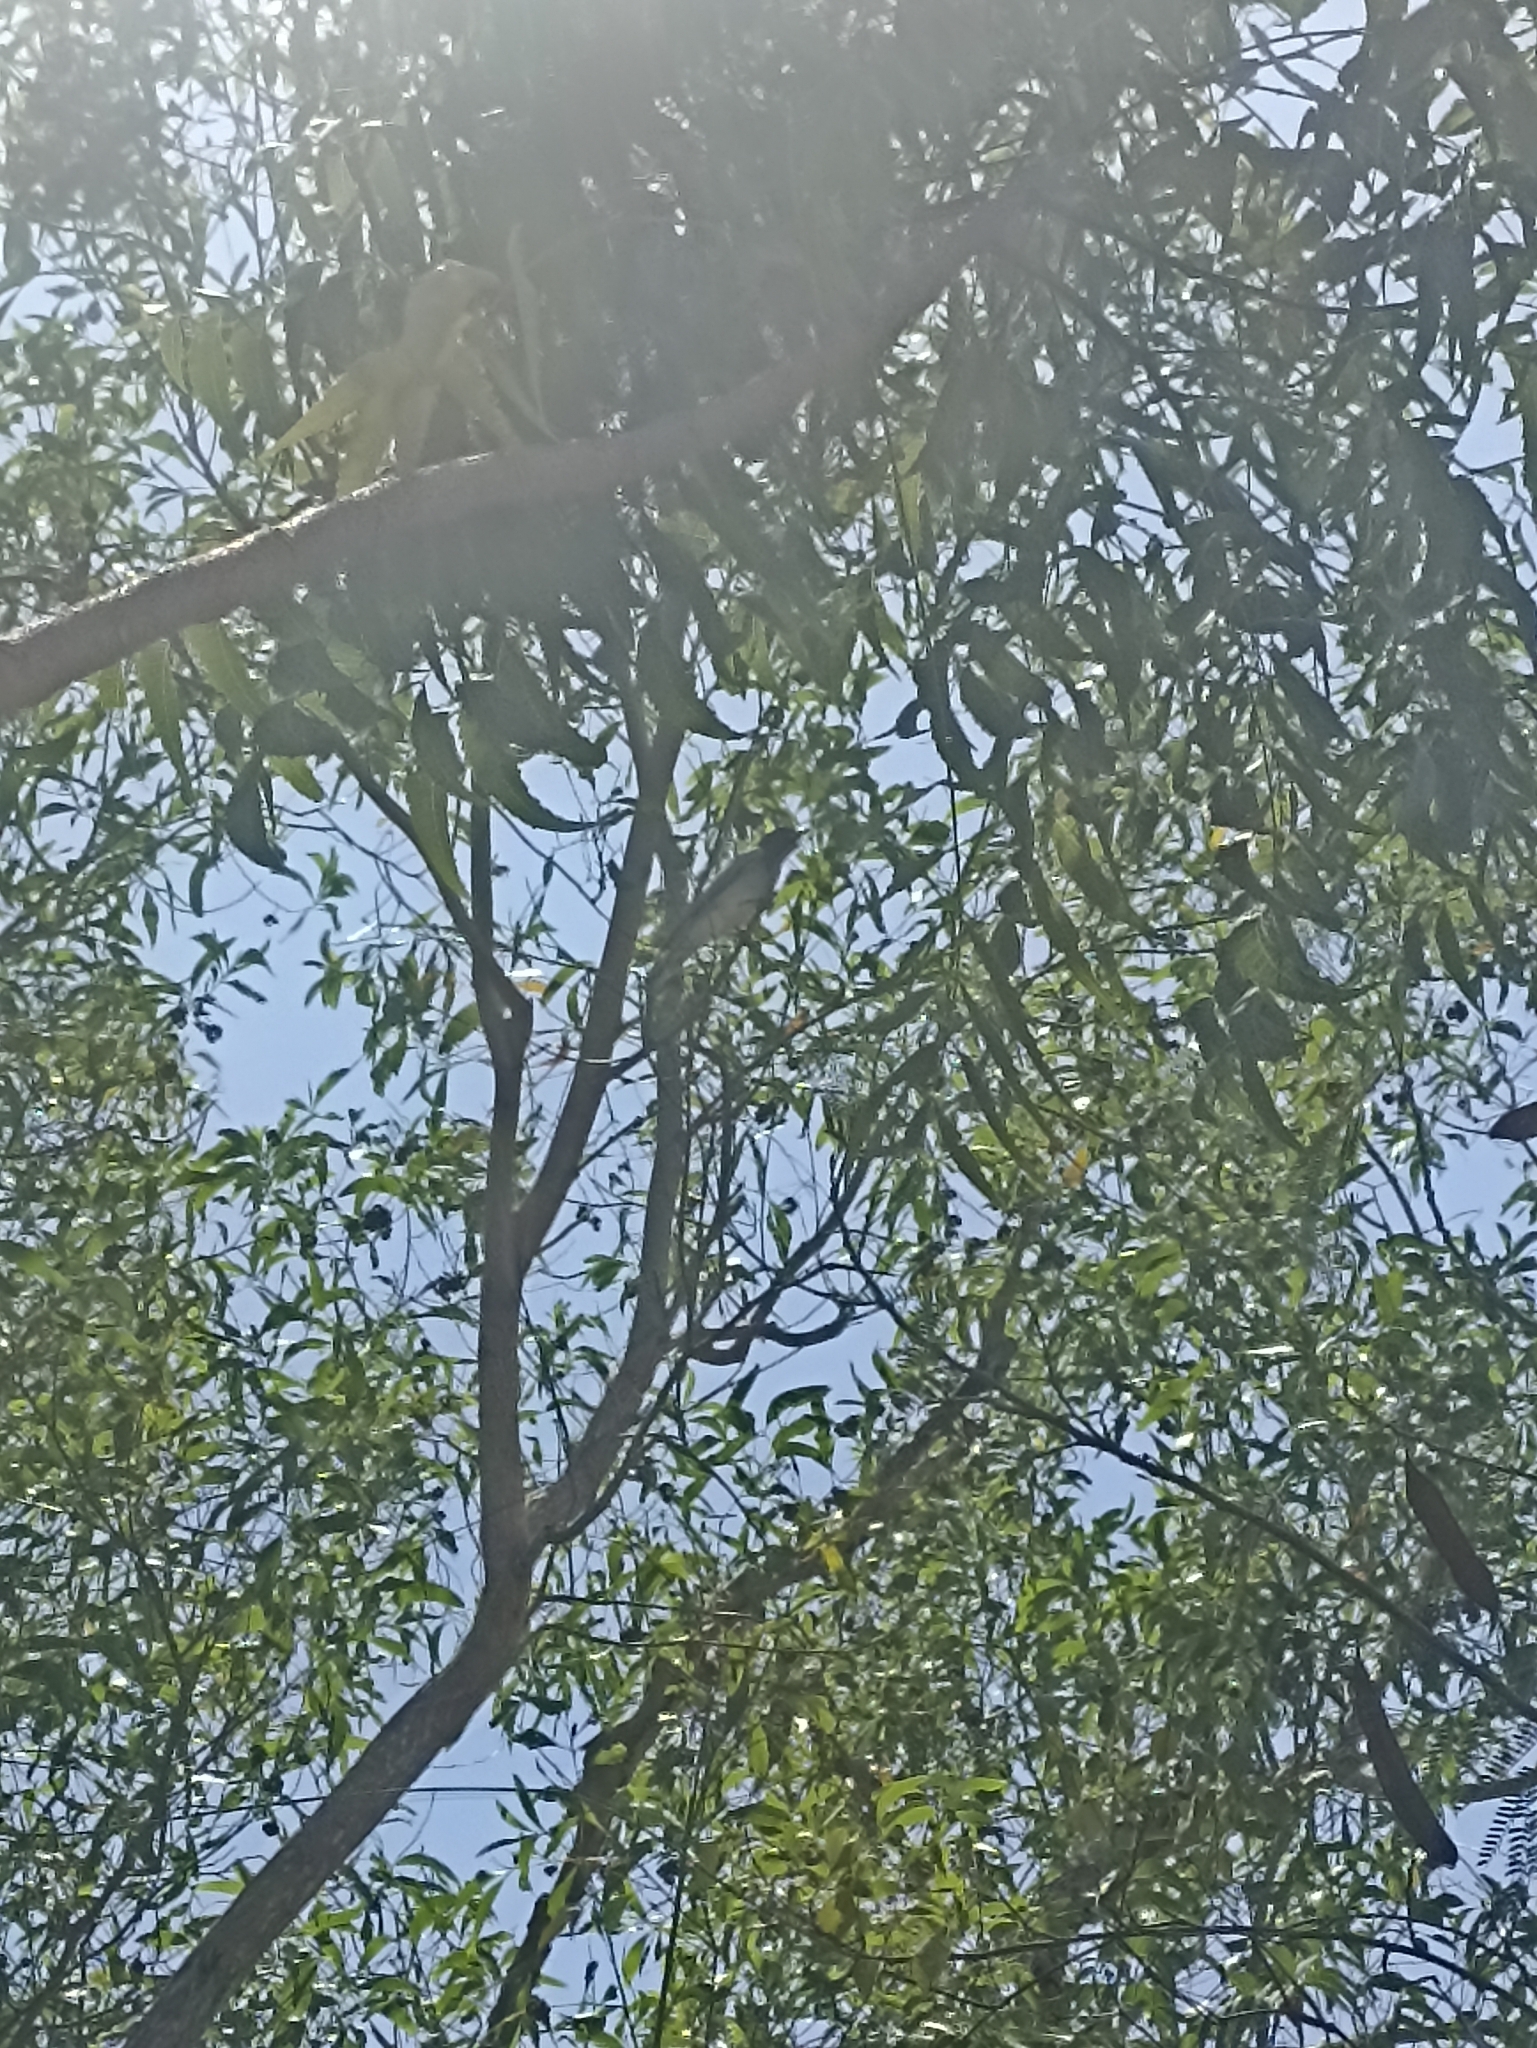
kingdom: Animalia
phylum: Chordata
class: Aves
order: Passeriformes
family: Campephagidae
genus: Coracina
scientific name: Coracina novaehollandiae
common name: Black-faced cuckooshrike
